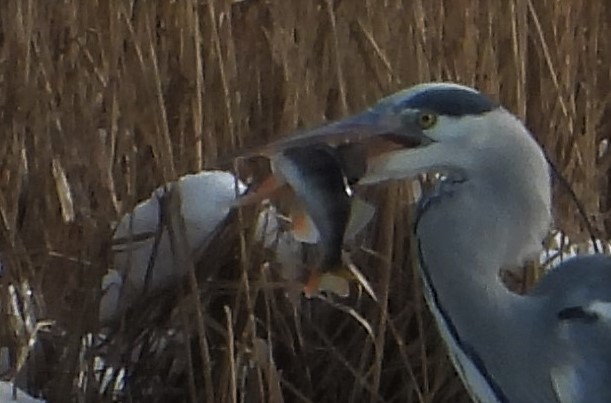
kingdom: Animalia
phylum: Chordata
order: Perciformes
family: Percidae
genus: Perca
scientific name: Perca fluviatilis
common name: Perch
